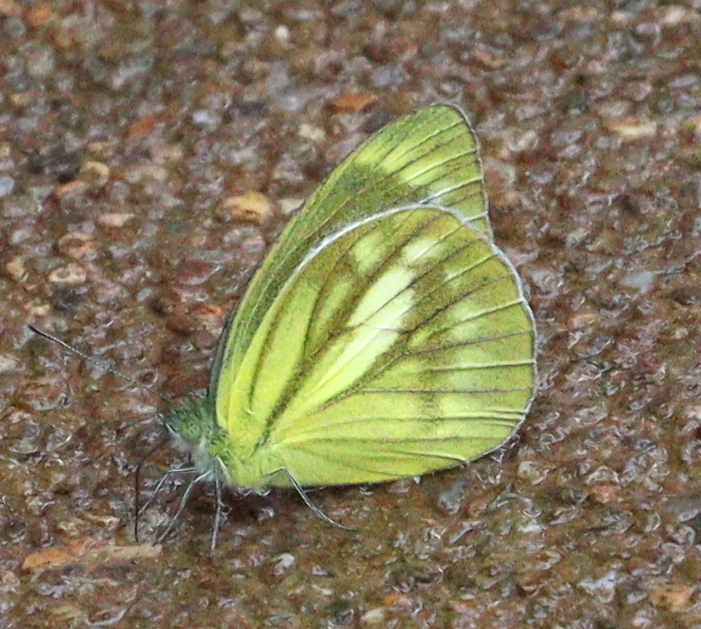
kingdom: Animalia
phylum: Arthropoda
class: Insecta
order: Lepidoptera
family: Pieridae
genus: Cepora
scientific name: Cepora nadina
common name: Lesser gull
